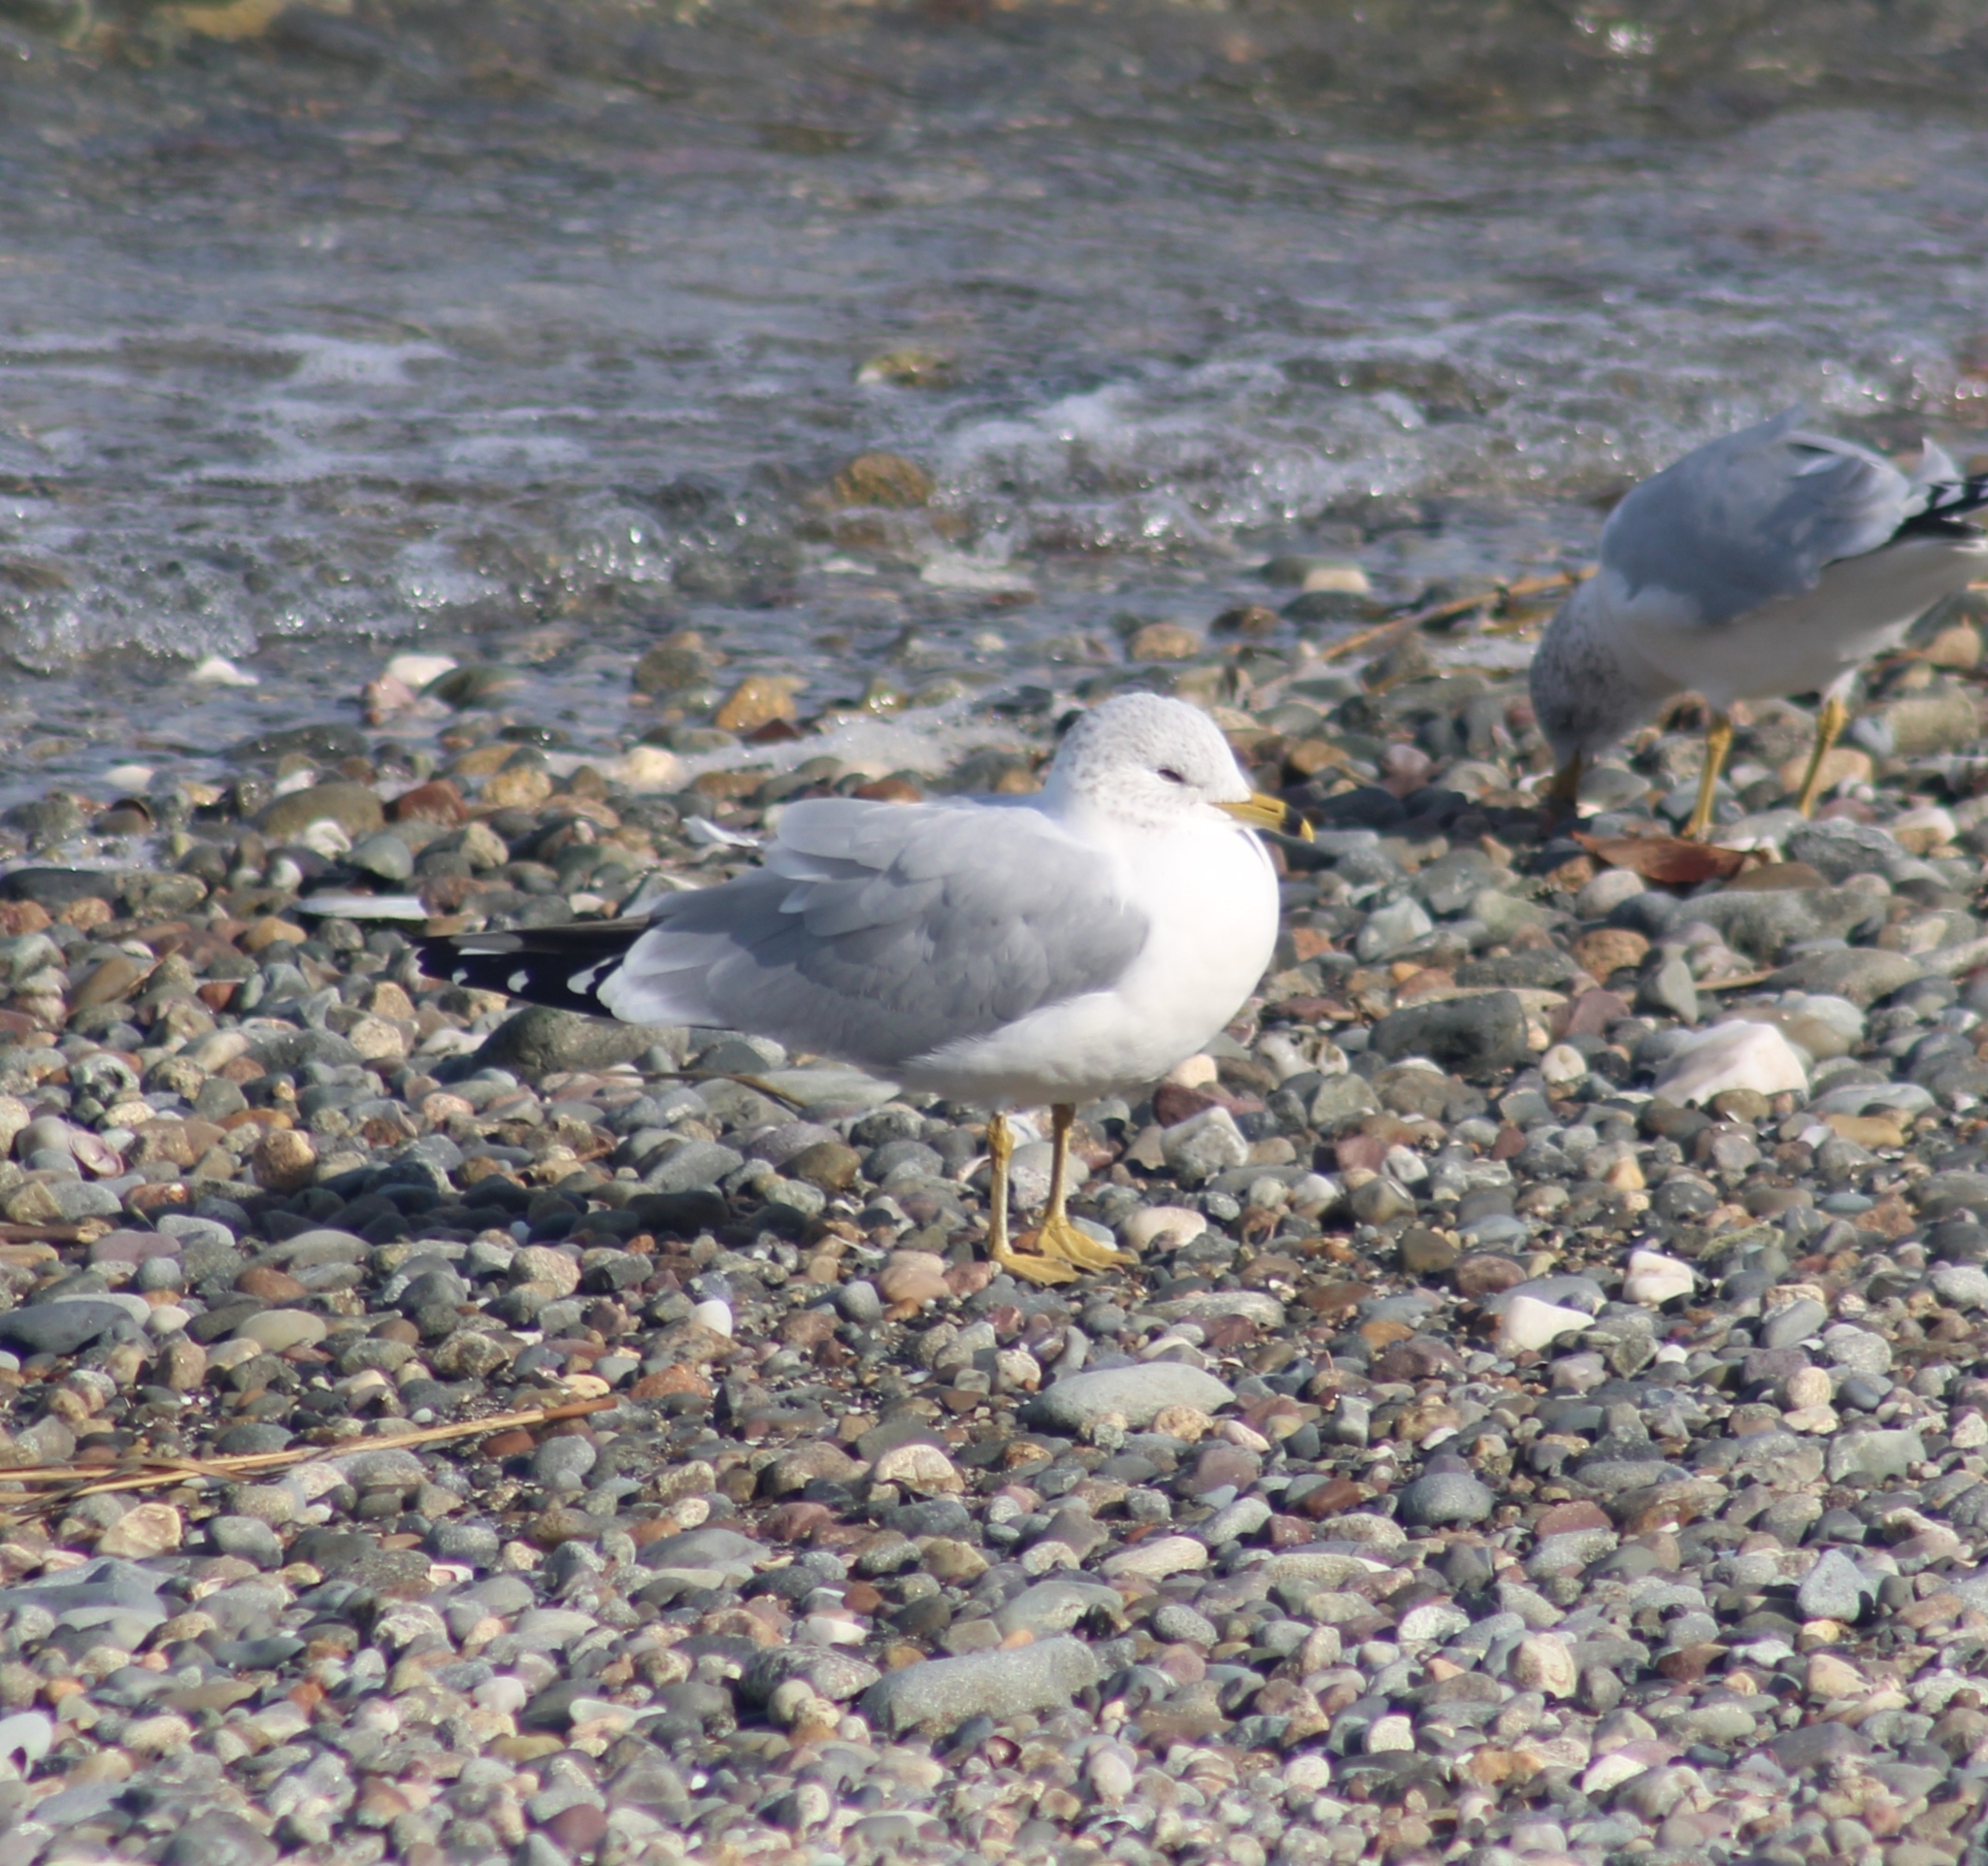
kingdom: Animalia
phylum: Chordata
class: Aves
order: Charadriiformes
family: Laridae
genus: Larus
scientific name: Larus delawarensis
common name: Ring-billed gull
